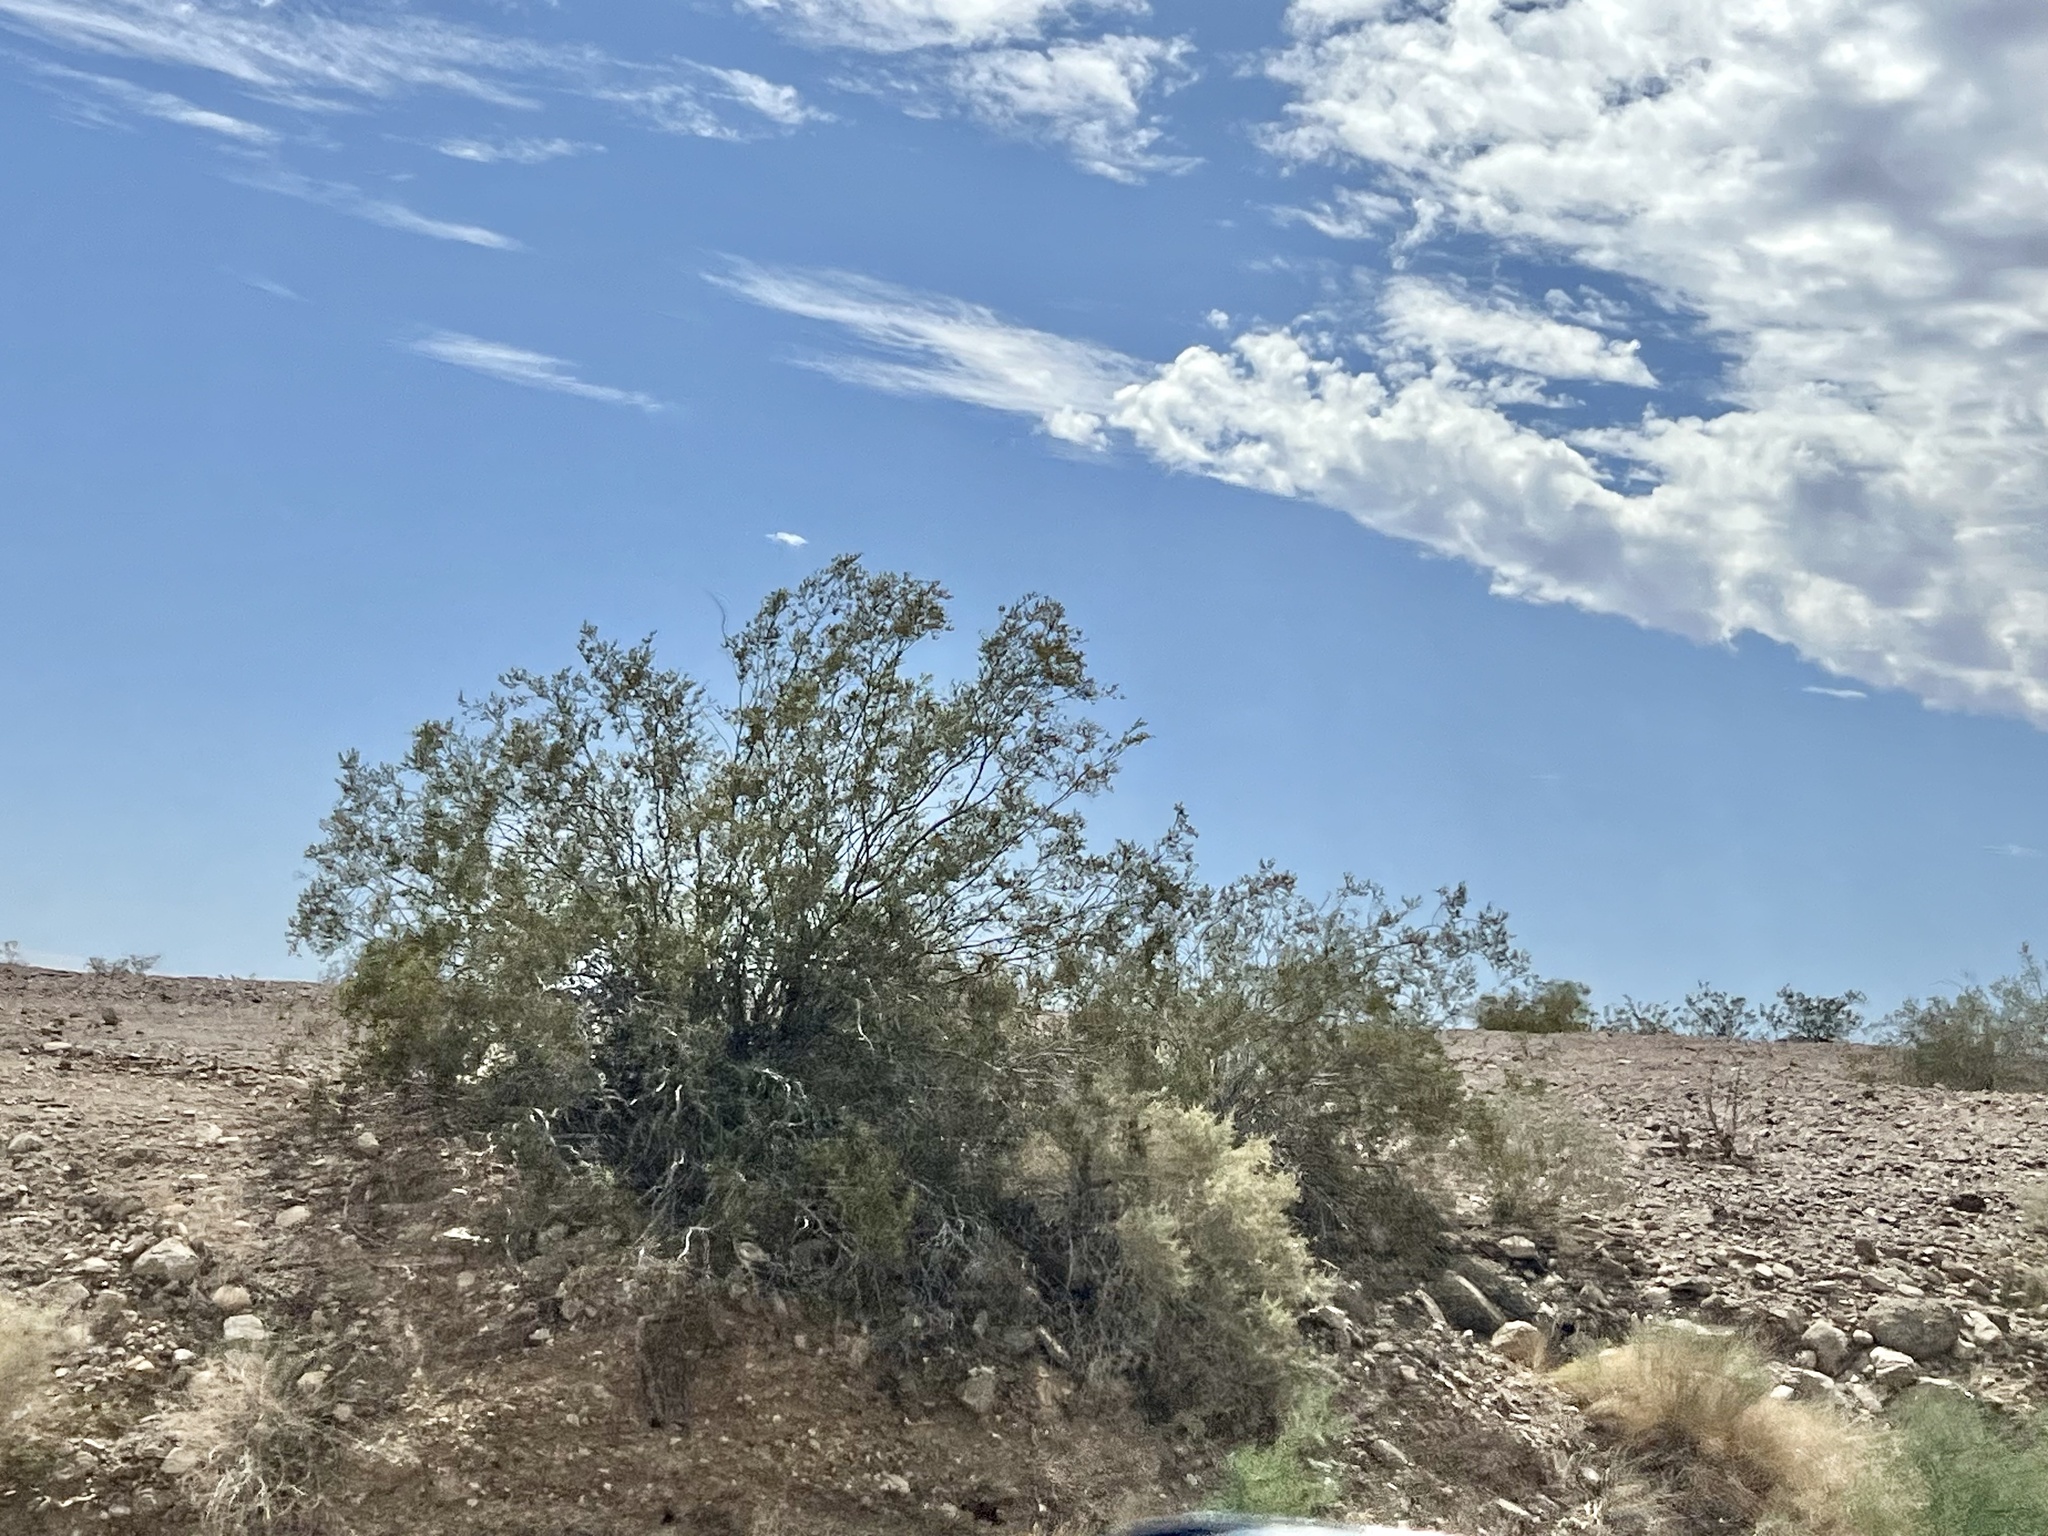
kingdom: Plantae
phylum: Tracheophyta
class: Magnoliopsida
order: Zygophyllales
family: Zygophyllaceae
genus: Larrea
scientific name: Larrea tridentata
